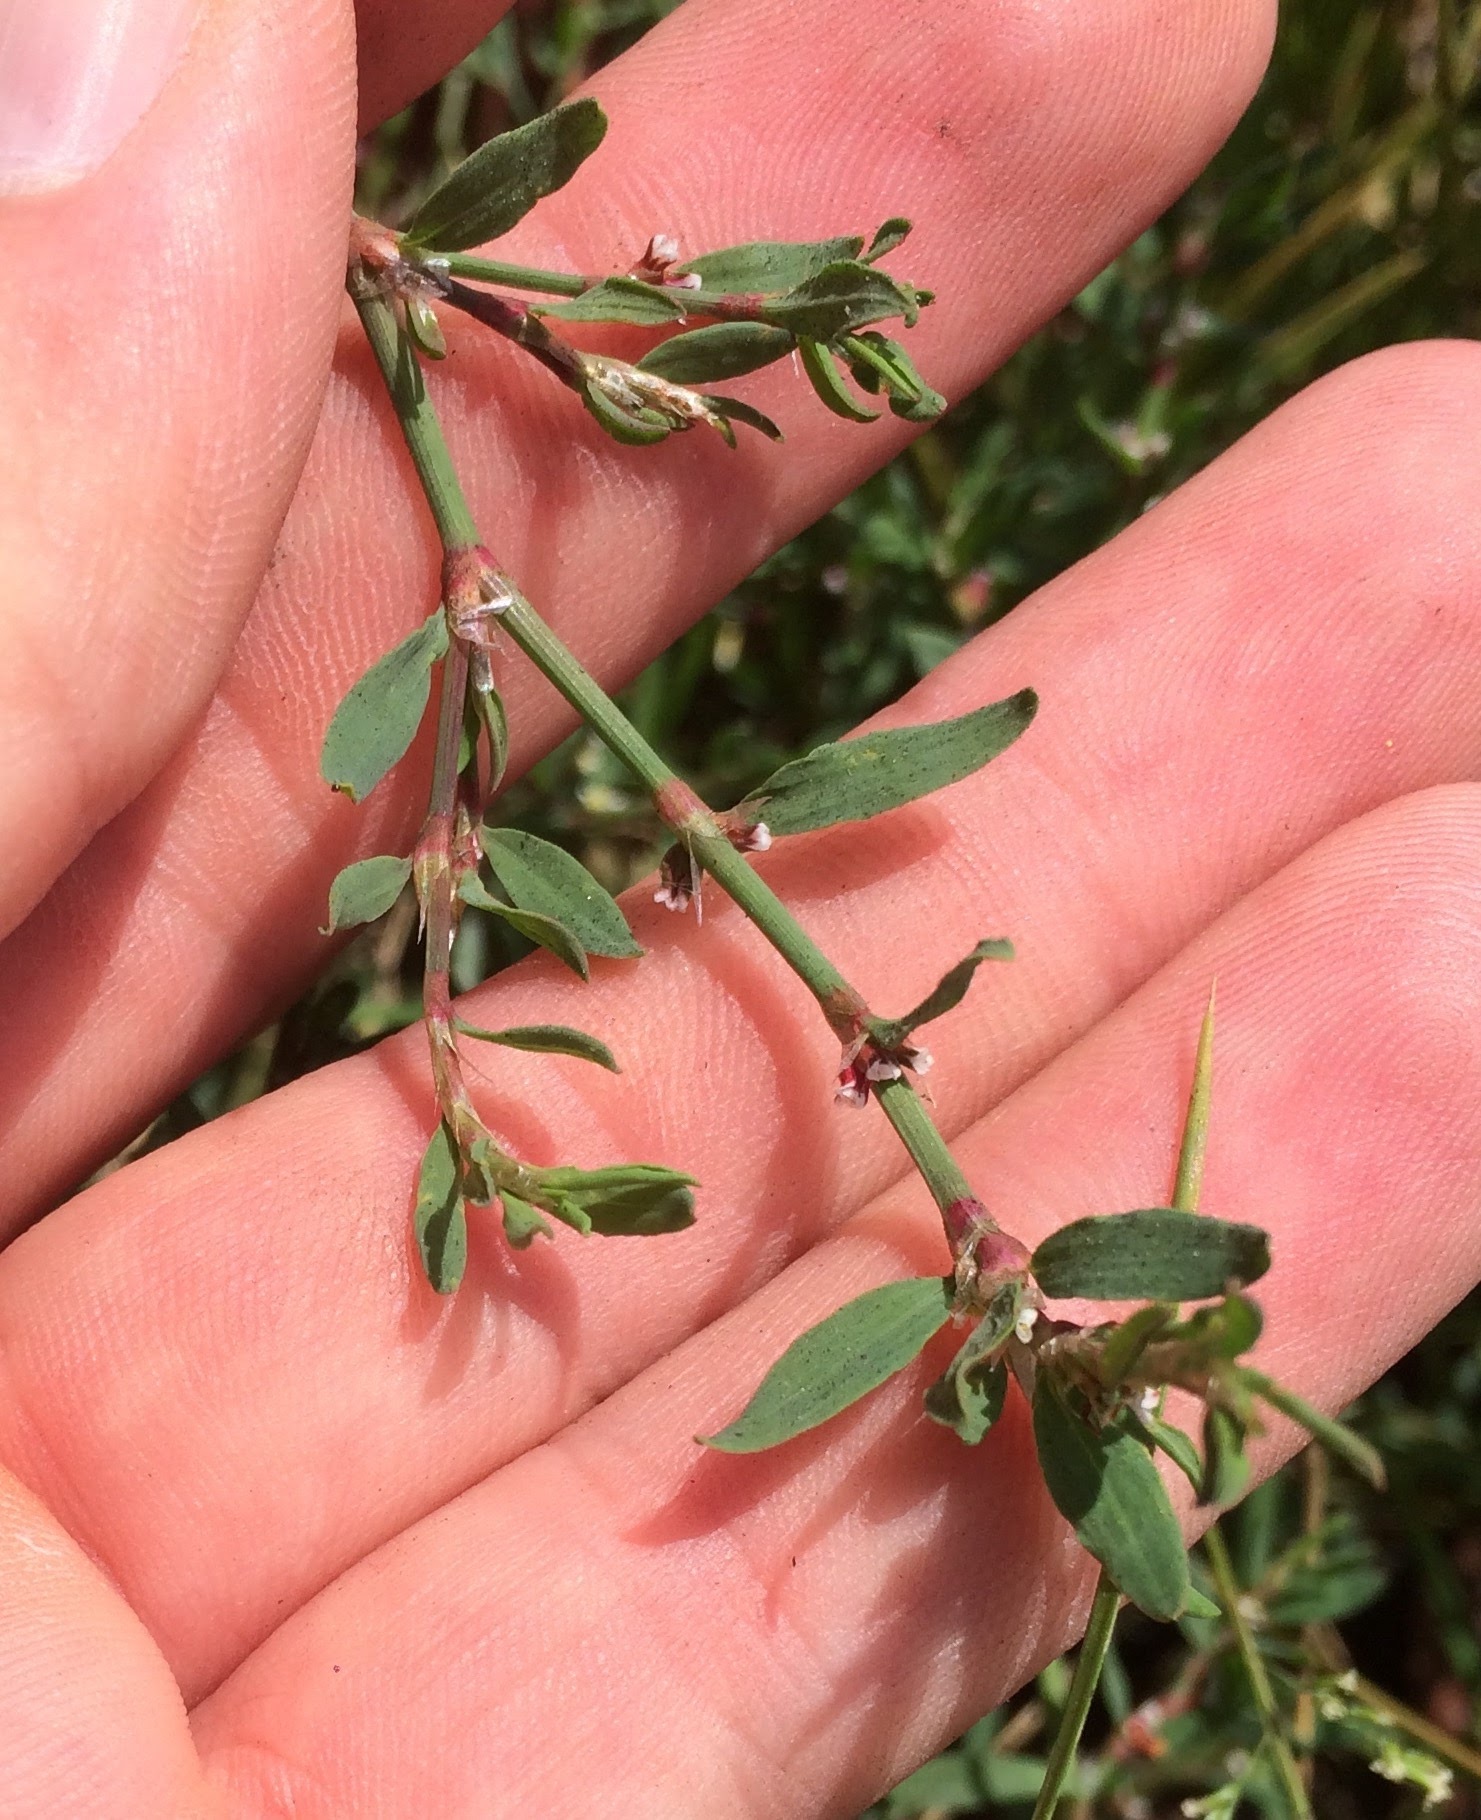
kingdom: Plantae
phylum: Tracheophyta
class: Magnoliopsida
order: Caryophyllales
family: Polygonaceae
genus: Polygonum
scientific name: Polygonum aviculare
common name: Prostrate knotweed
